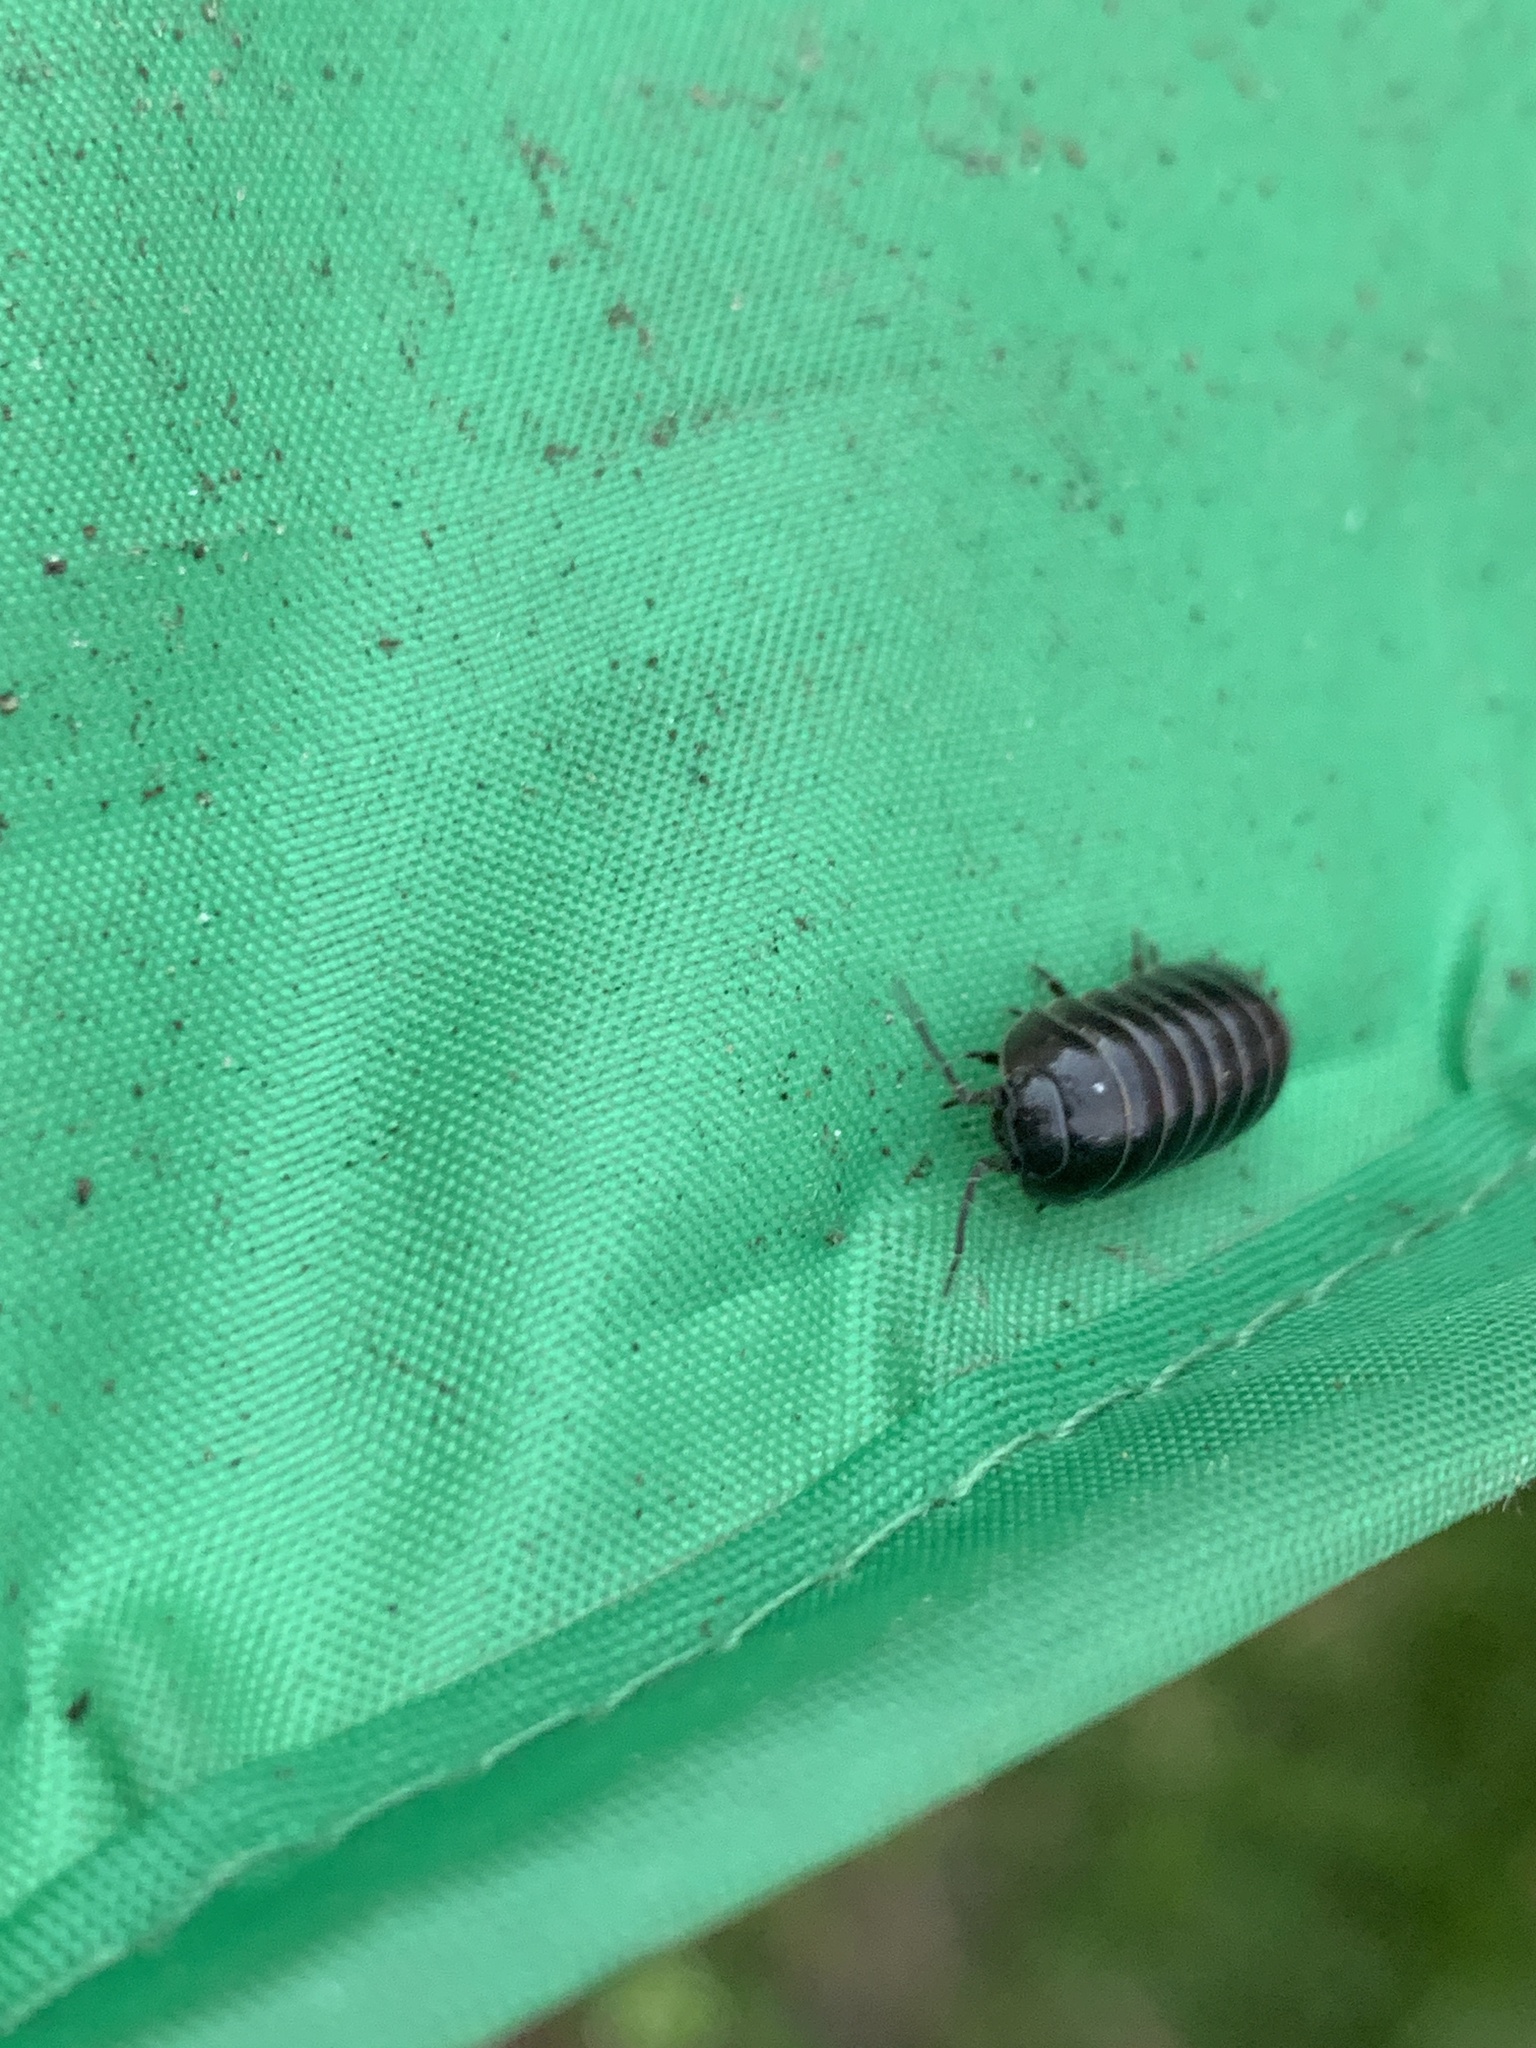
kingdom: Animalia
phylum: Arthropoda
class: Malacostraca
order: Isopoda
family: Armadillidiidae
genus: Armadillidium
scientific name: Armadillidium vulgare
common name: Common pill woodlouse
